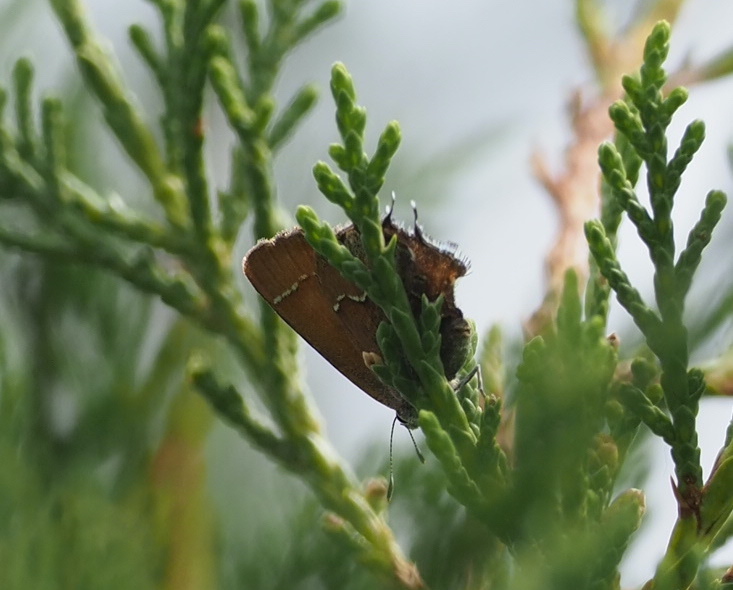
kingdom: Animalia
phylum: Arthropoda
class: Insecta
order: Lepidoptera
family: Lycaenidae
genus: Mitoura
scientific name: Mitoura gryneus
